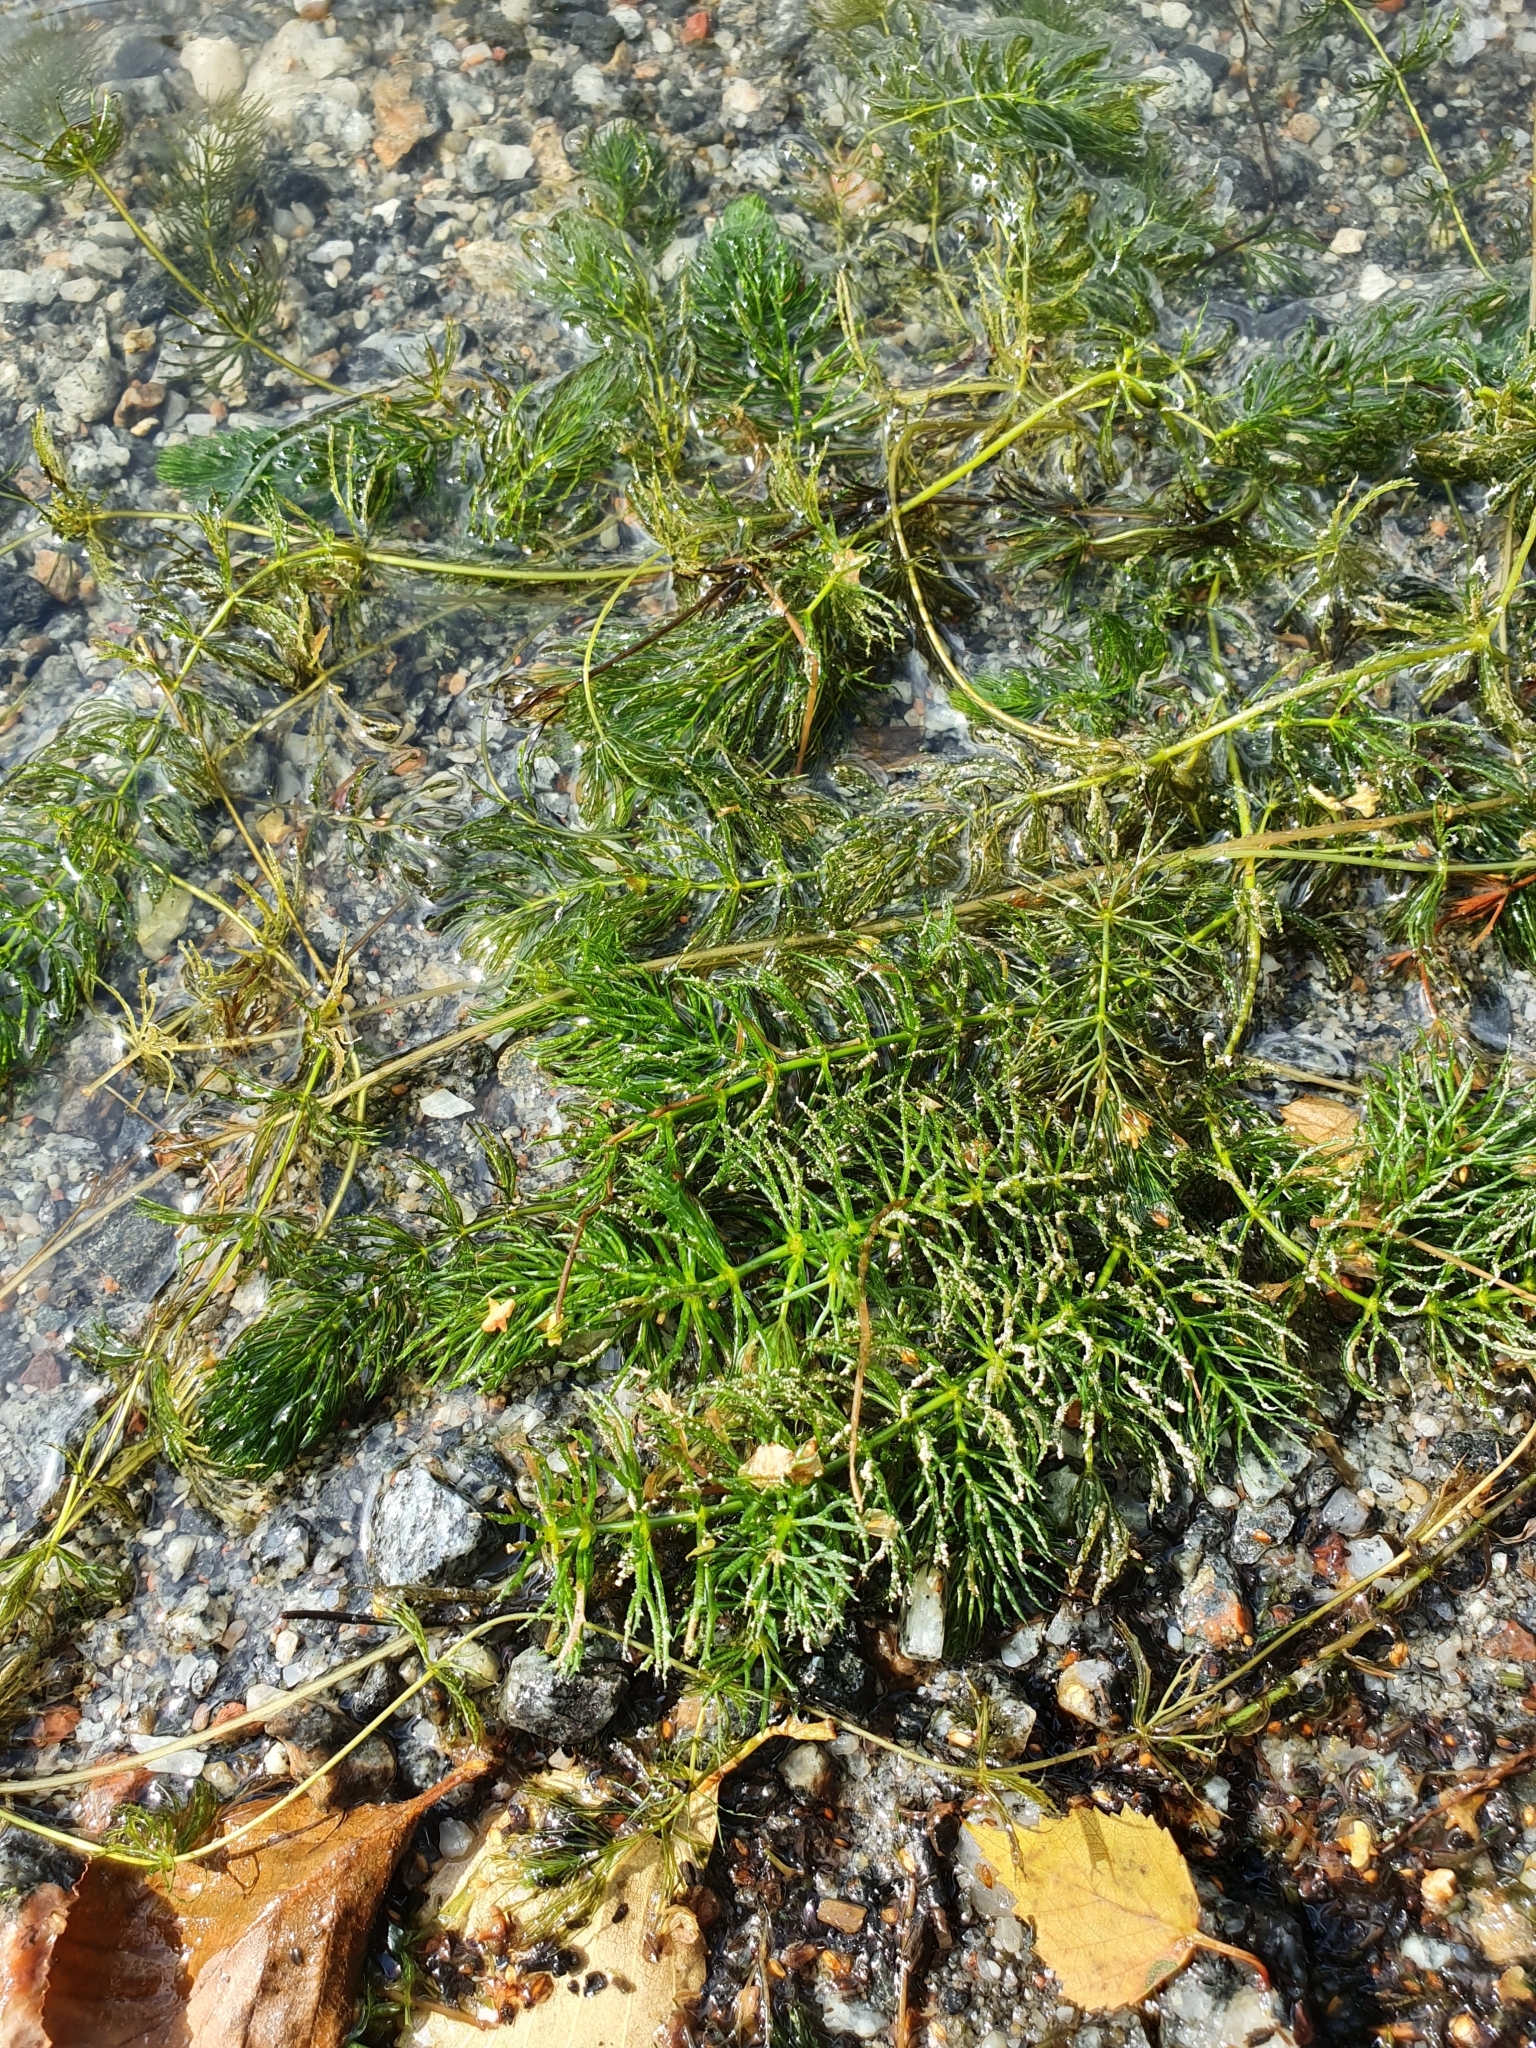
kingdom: Plantae
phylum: Tracheophyta
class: Magnoliopsida
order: Ceratophyllales
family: Ceratophyllaceae
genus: Ceratophyllum
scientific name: Ceratophyllum demersum
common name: Rigid hornwort
